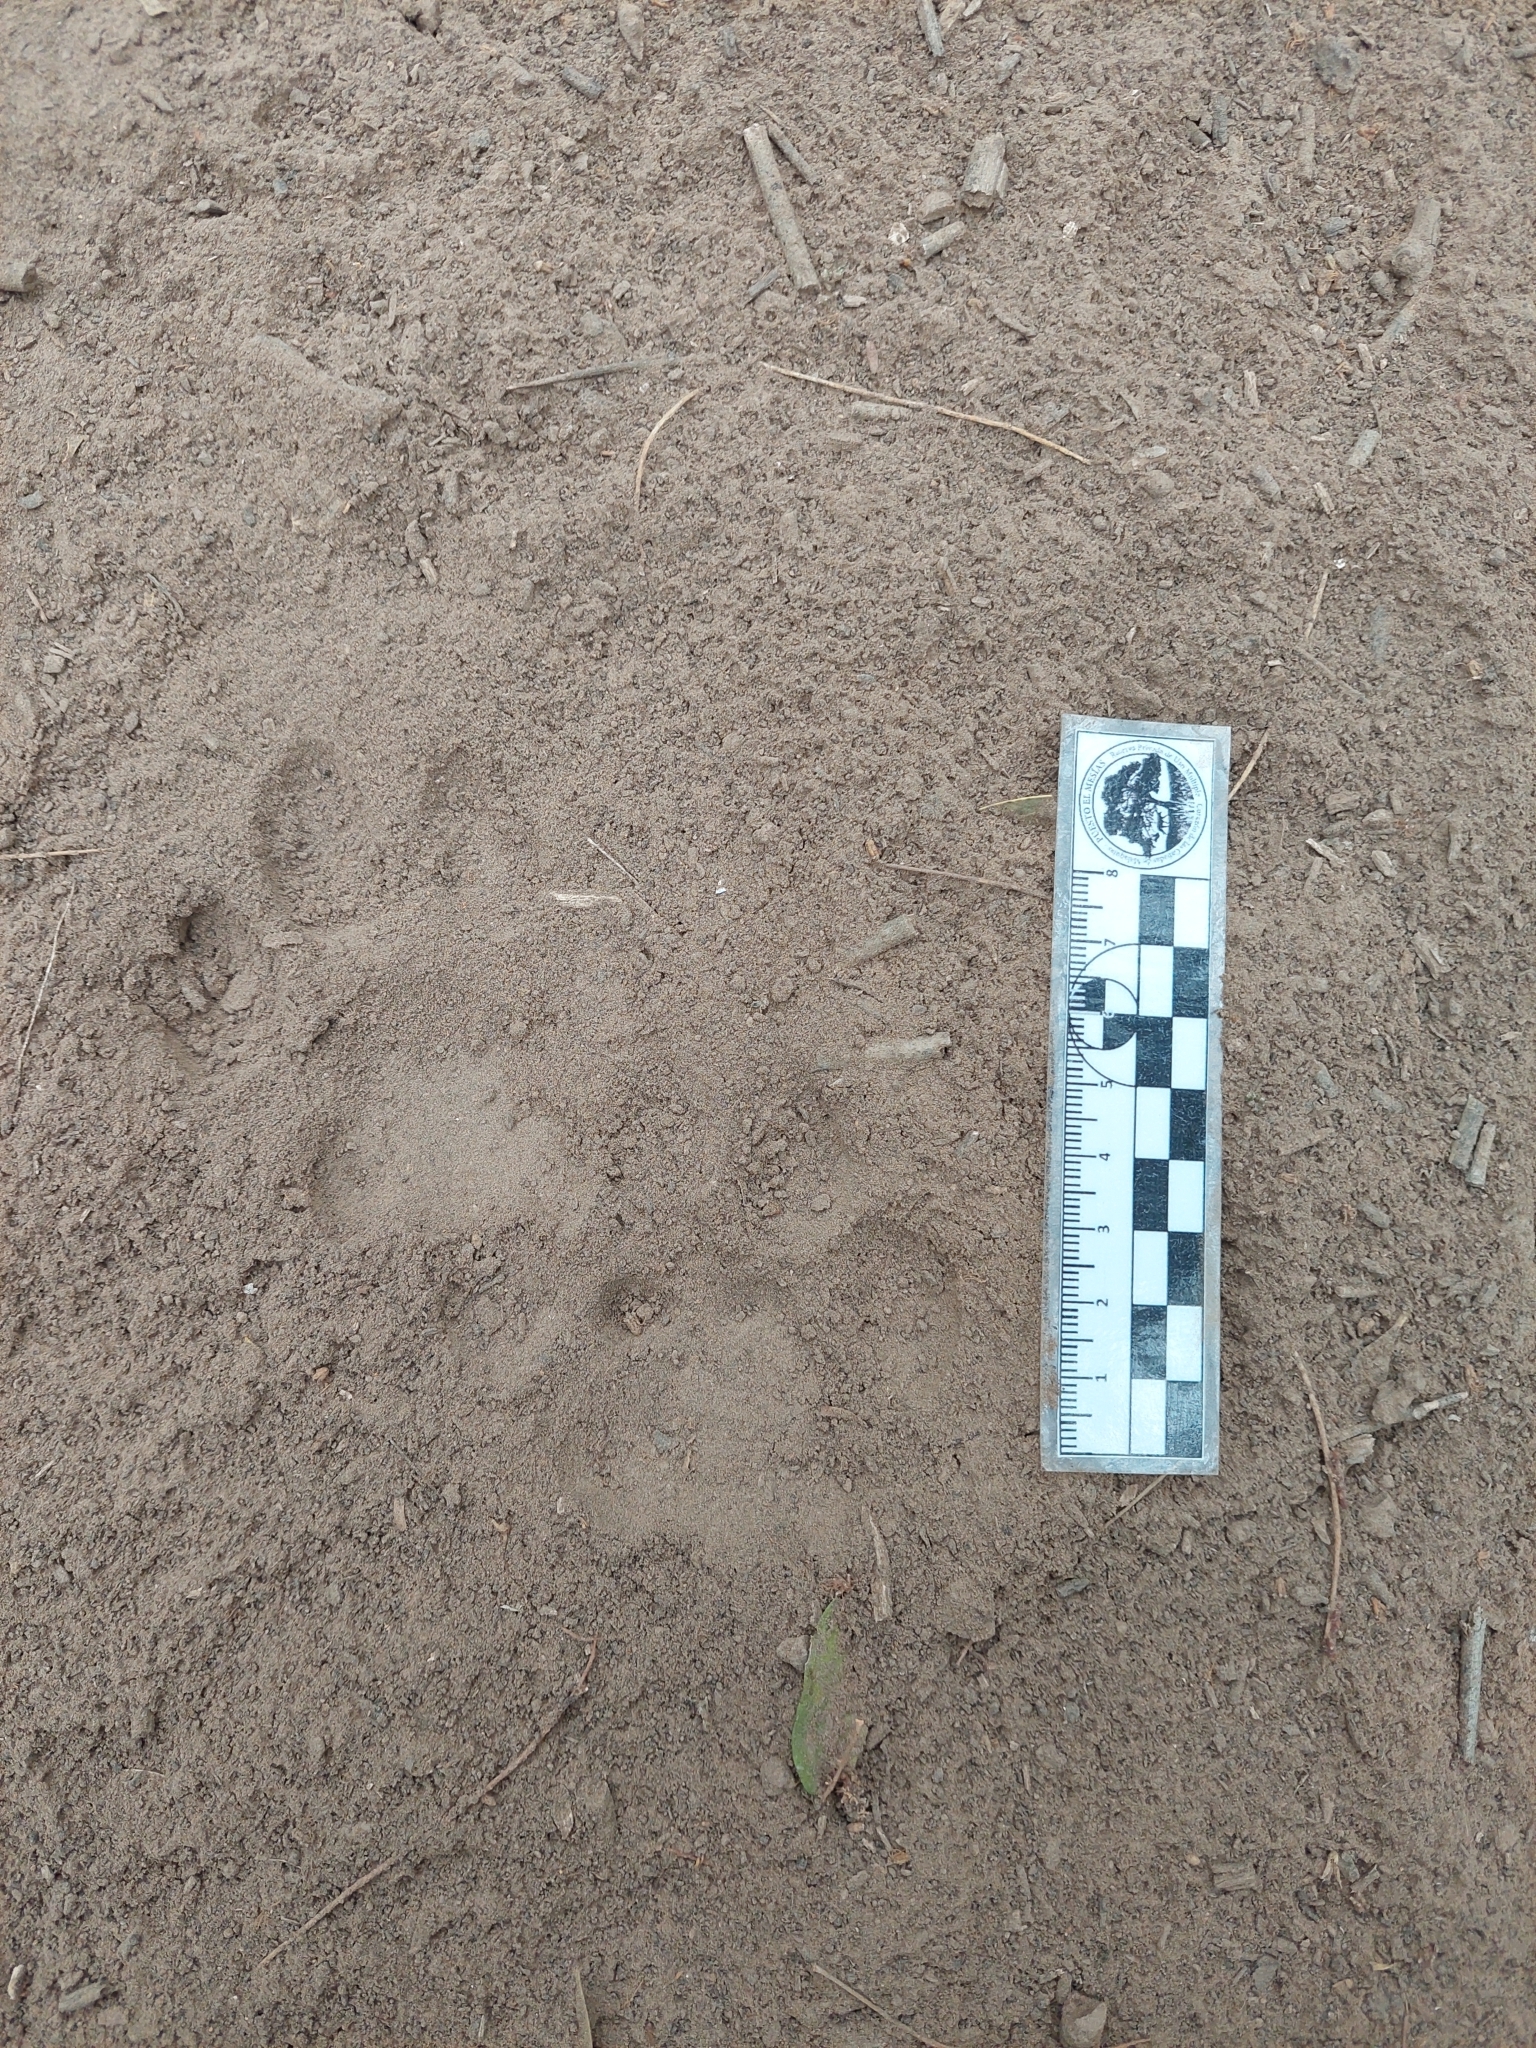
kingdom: Animalia
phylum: Chordata
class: Mammalia
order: Carnivora
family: Felidae
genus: Puma
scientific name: Puma concolor
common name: Puma
